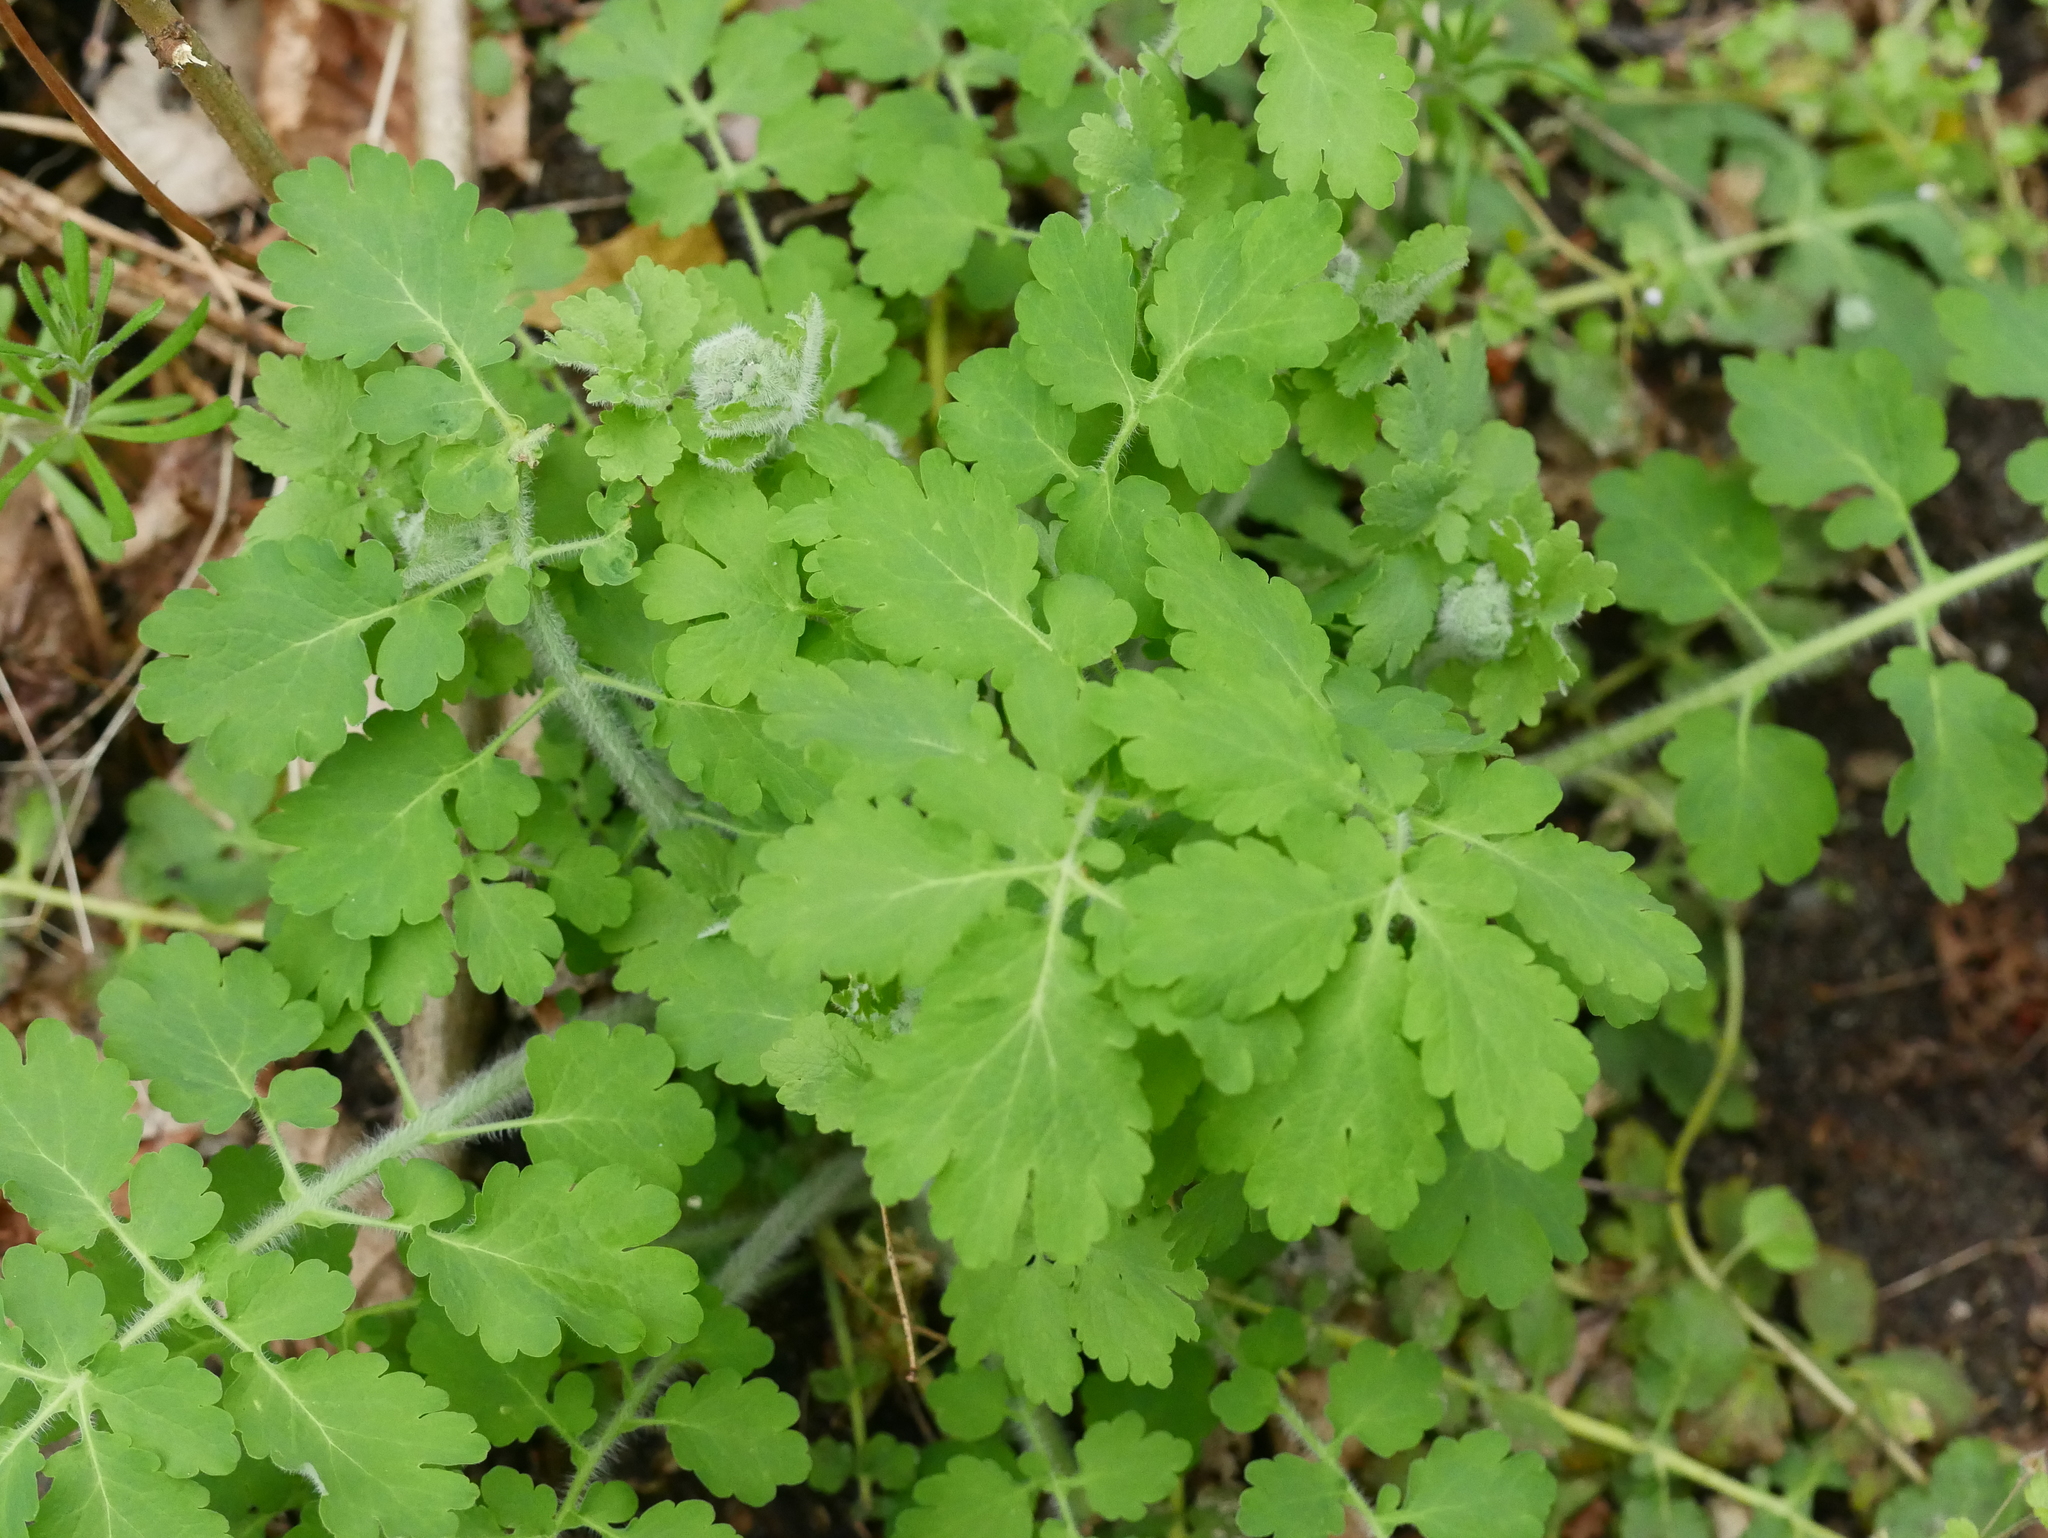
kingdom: Plantae
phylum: Tracheophyta
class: Magnoliopsida
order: Ranunculales
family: Papaveraceae
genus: Chelidonium
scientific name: Chelidonium majus
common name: Greater celandine
